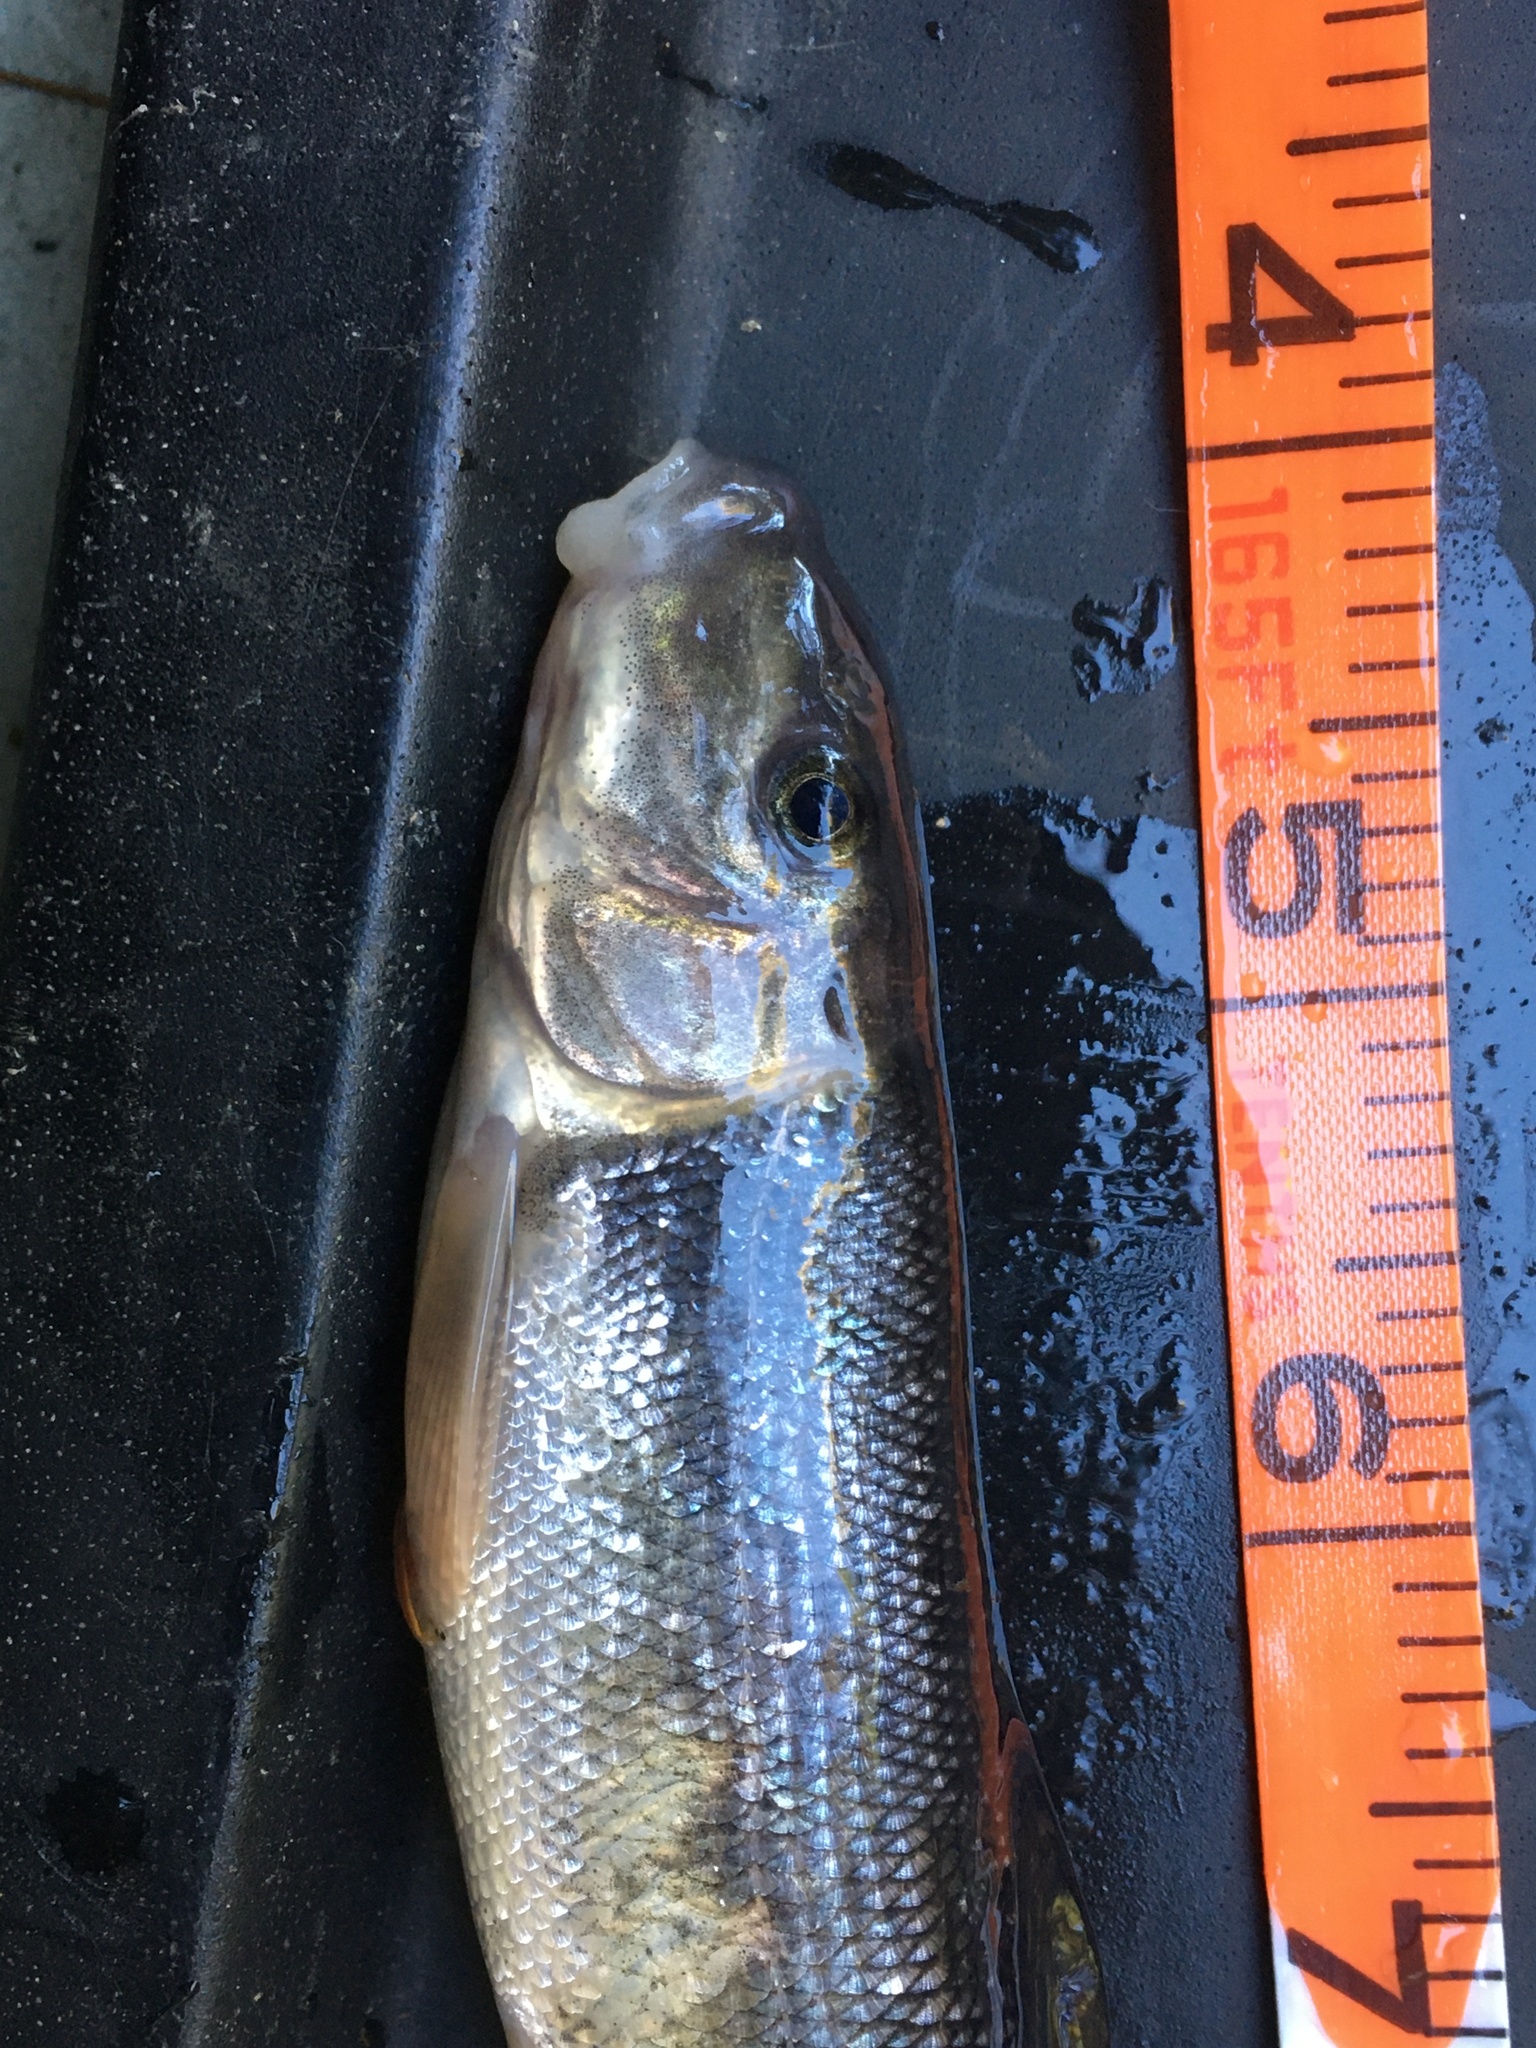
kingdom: Animalia
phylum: Chordata
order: Cypriniformes
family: Catostomidae
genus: Catostomus
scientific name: Catostomus commersonii
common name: White sucker
